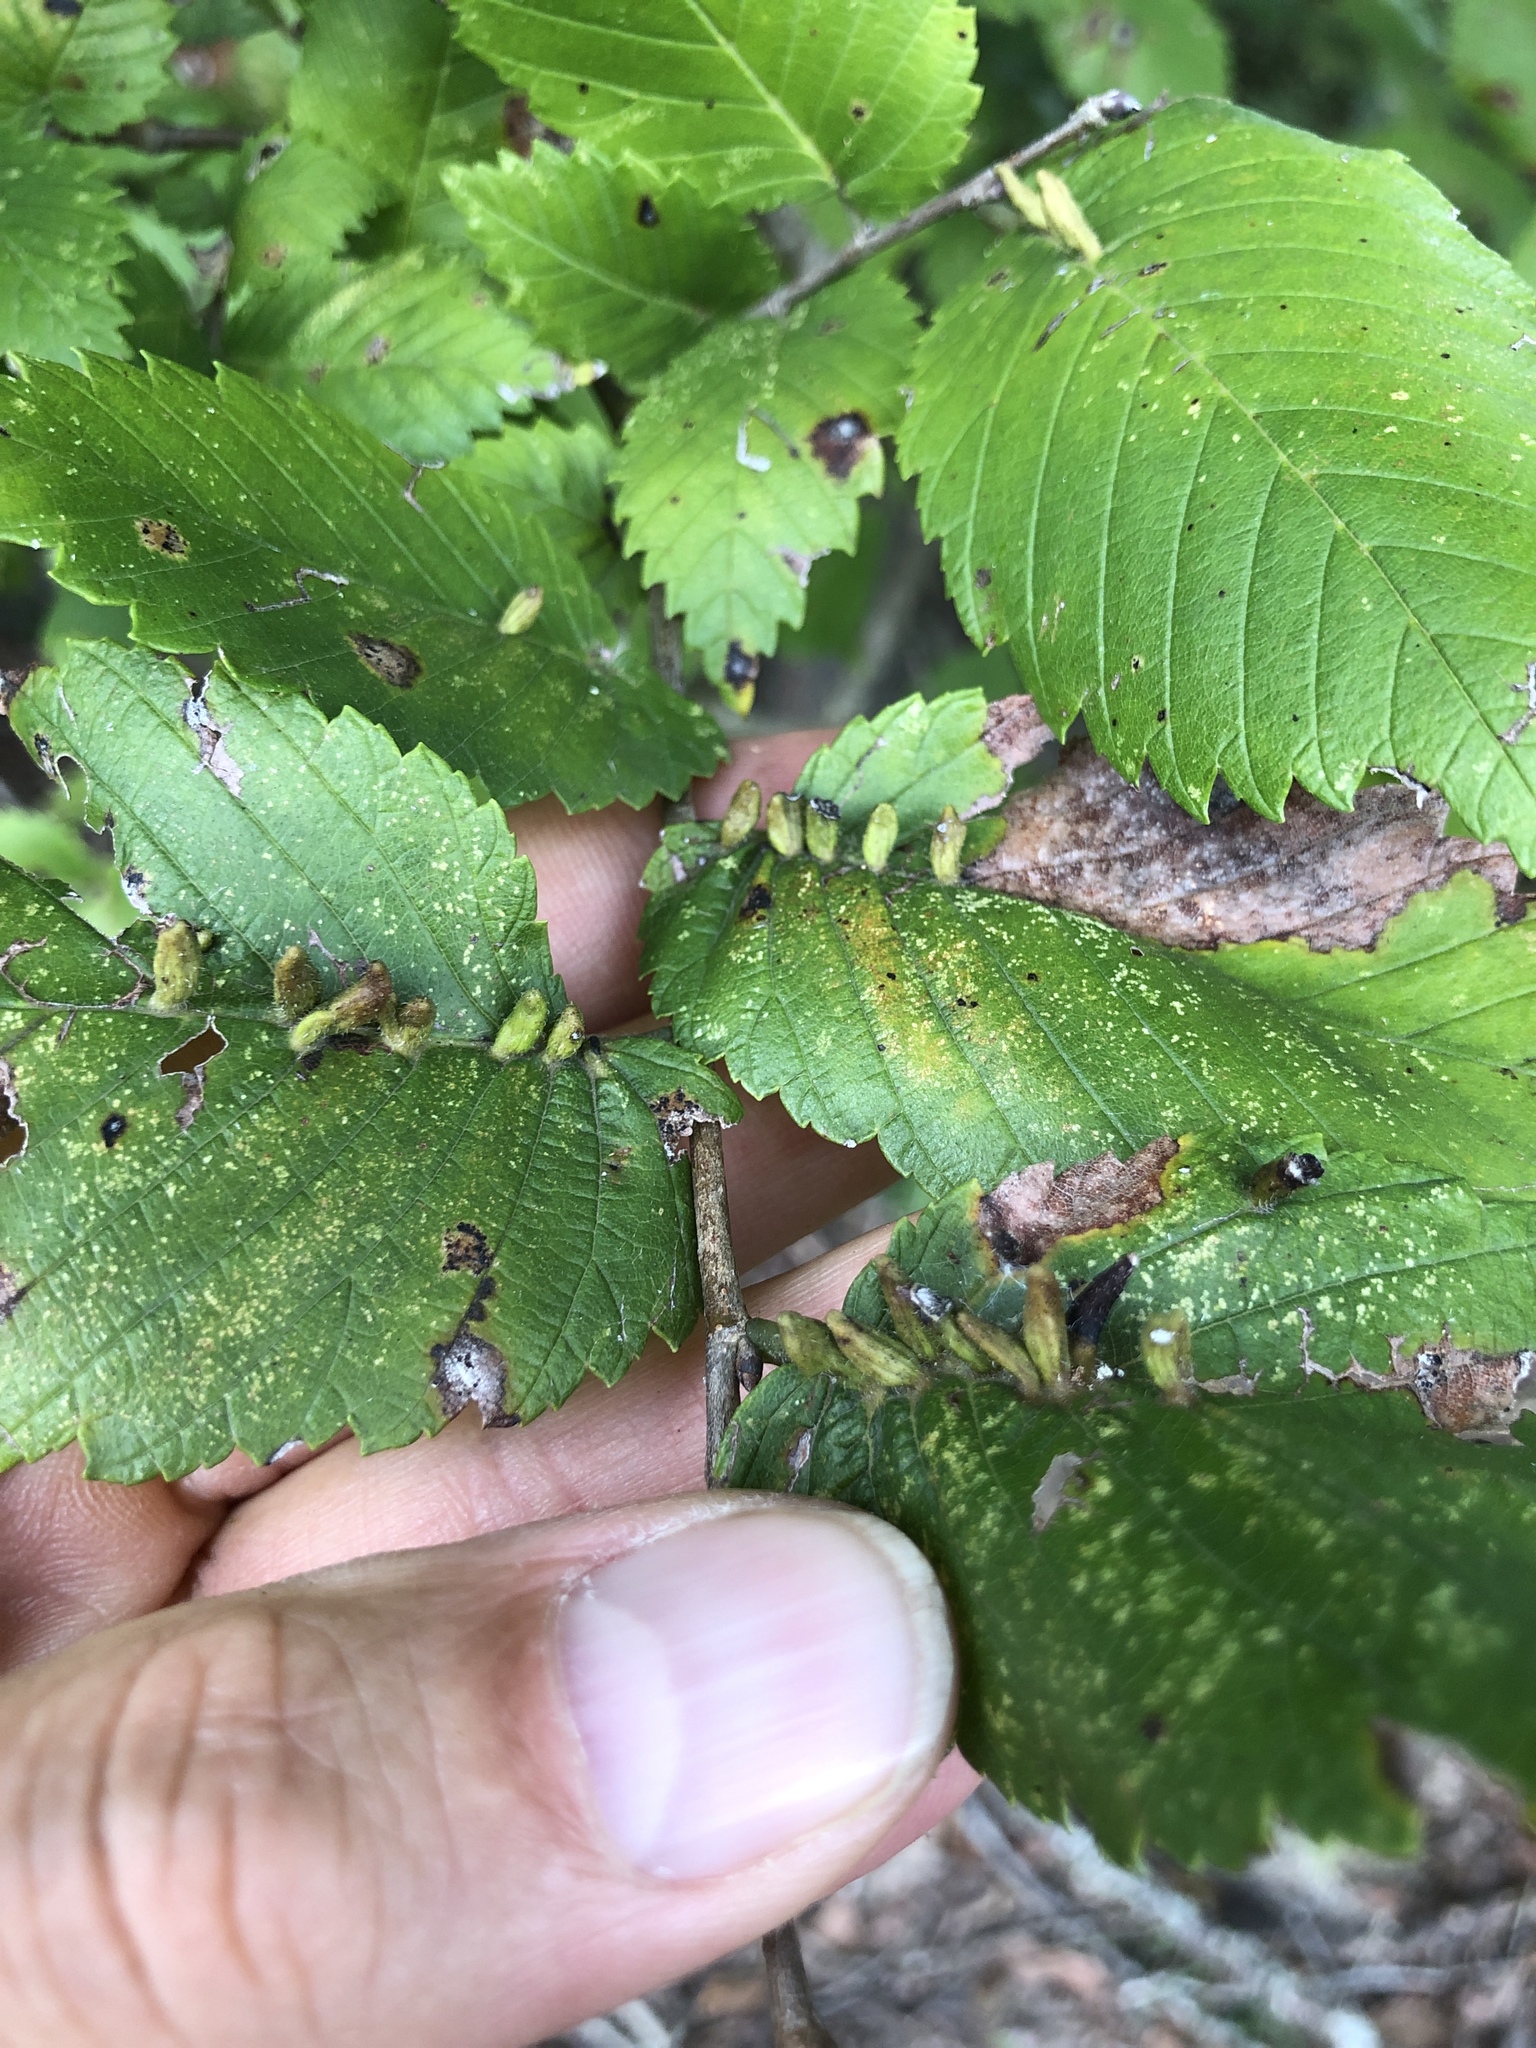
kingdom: Animalia
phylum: Arthropoda
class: Arachnida
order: Trombidiformes
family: Eriophyidae
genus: Aceria
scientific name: Aceria
